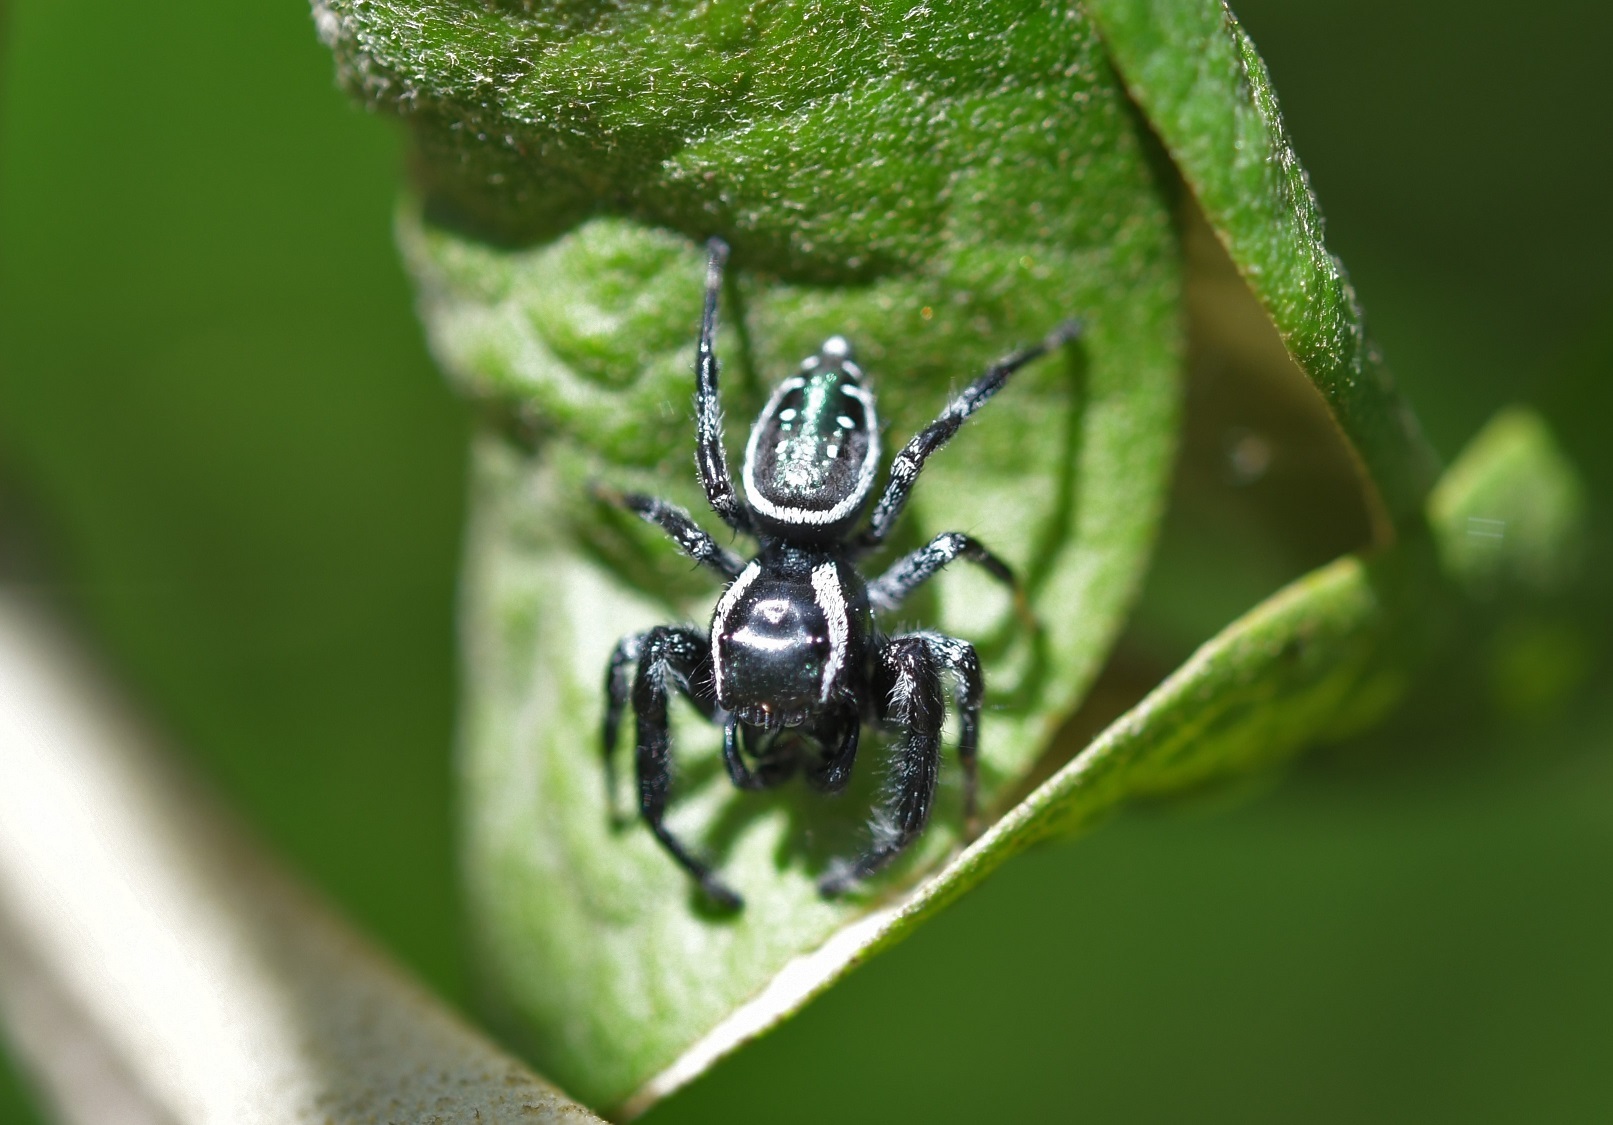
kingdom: Animalia
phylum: Arthropoda
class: Arachnida
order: Araneae
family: Salticidae
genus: Paraphidippus
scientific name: Paraphidippus aurantius
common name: Jumping spiders
